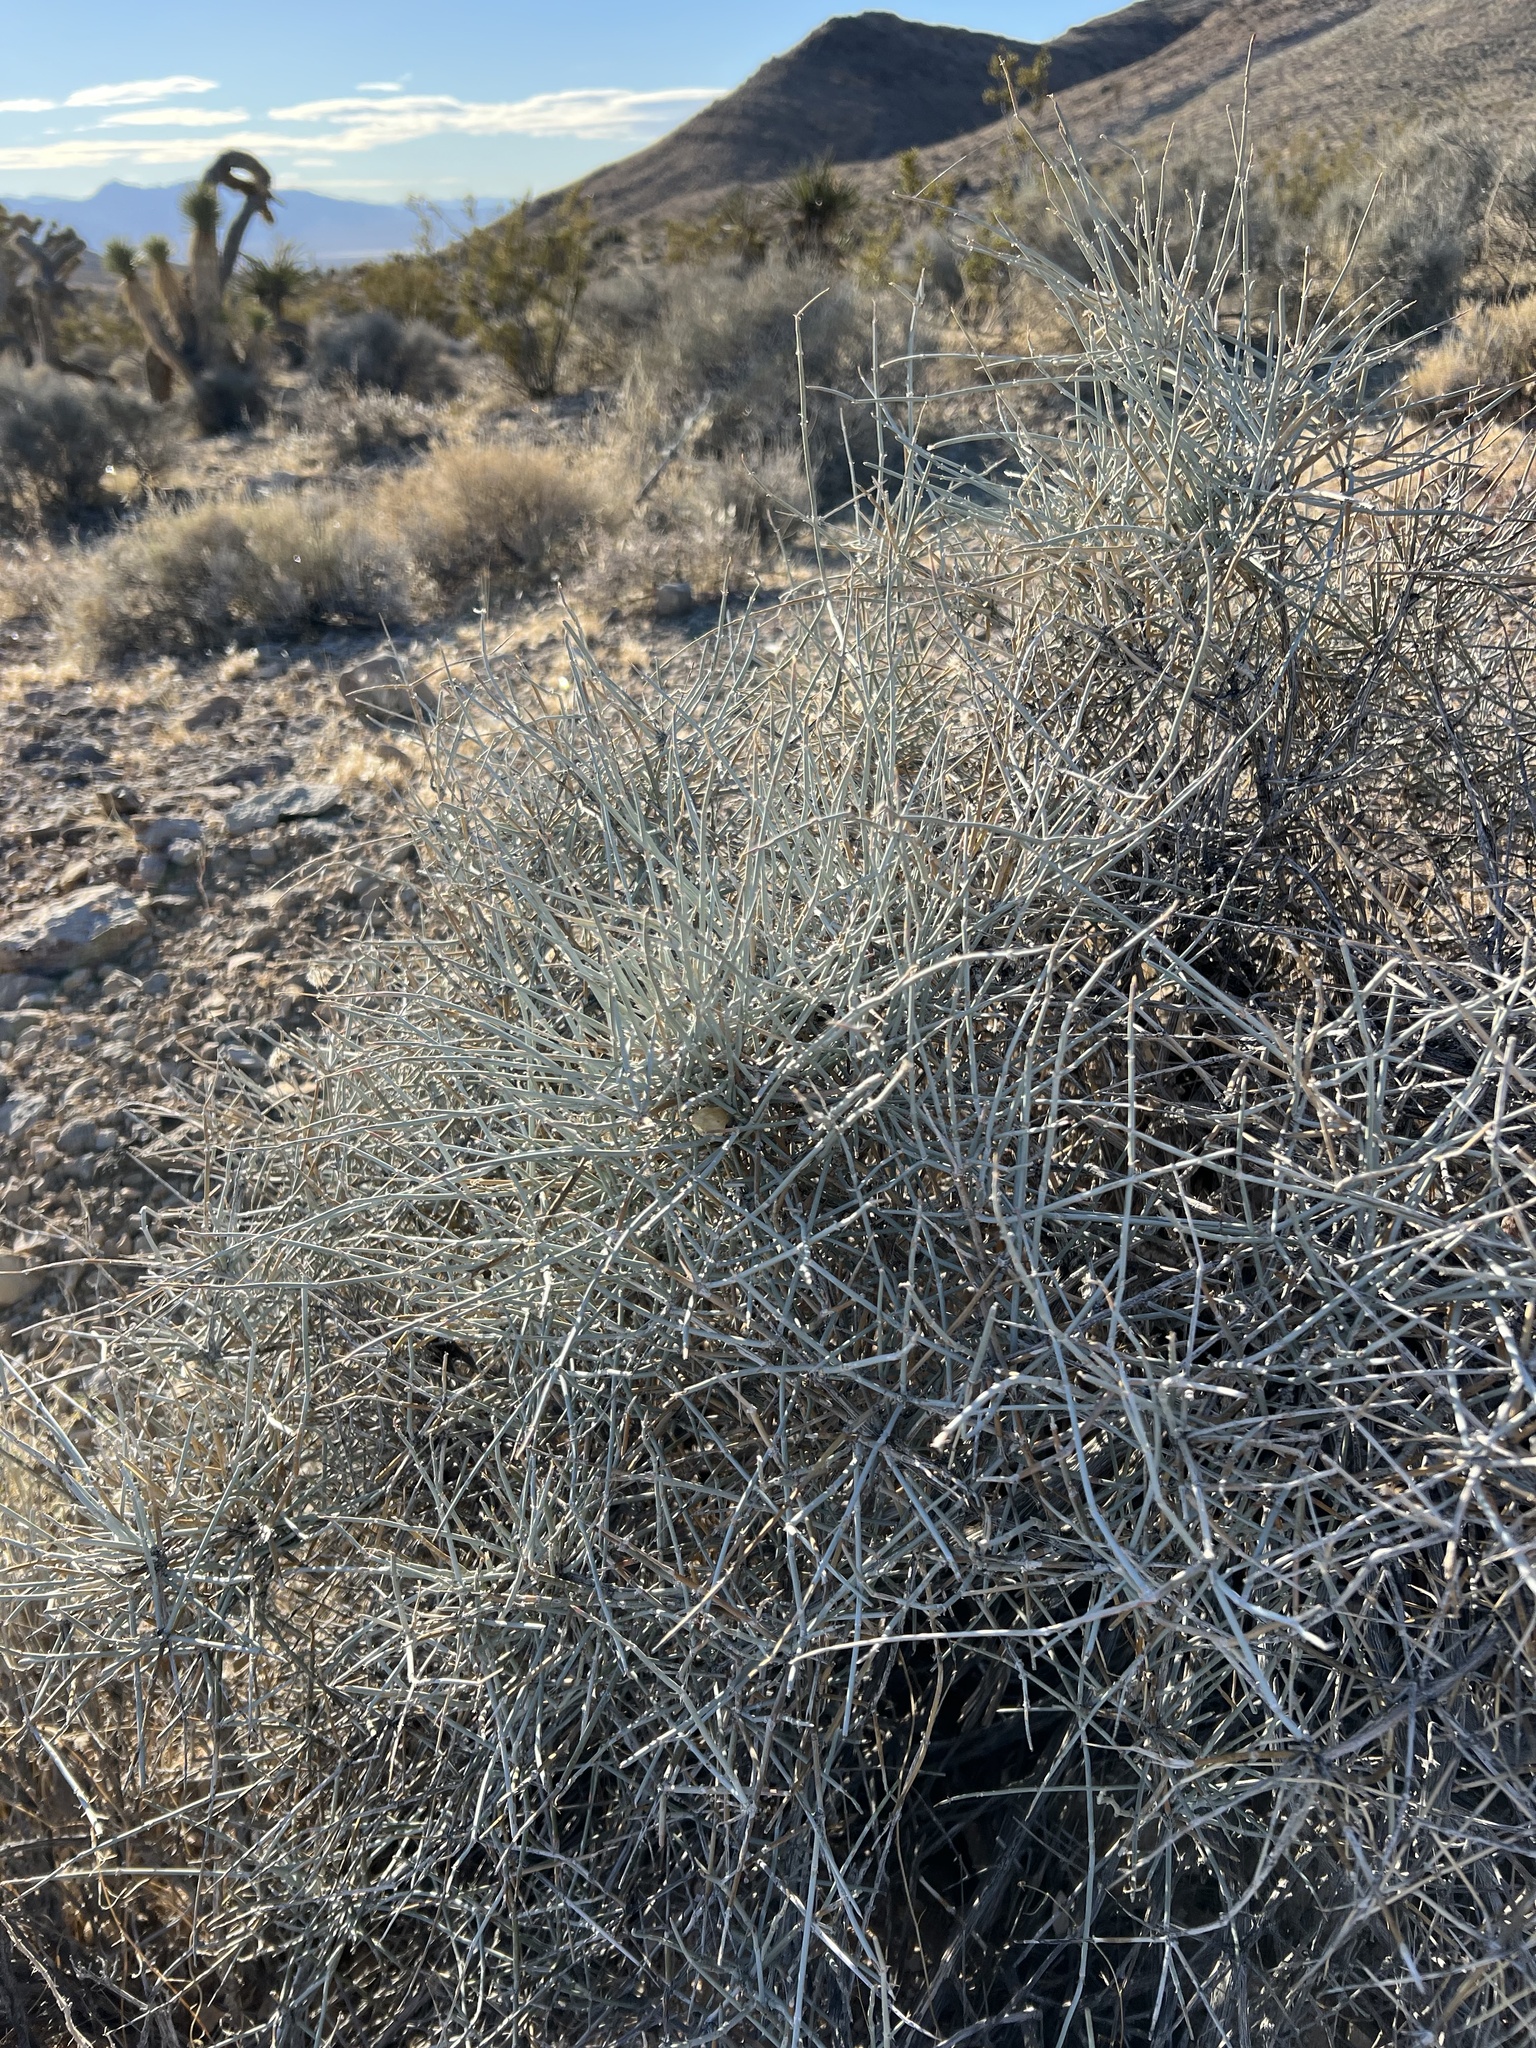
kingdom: Plantae
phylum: Tracheophyta
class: Gnetopsida
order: Ephedrales
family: Ephedraceae
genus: Ephedra
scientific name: Ephedra nevadensis
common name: Gray ephedra
